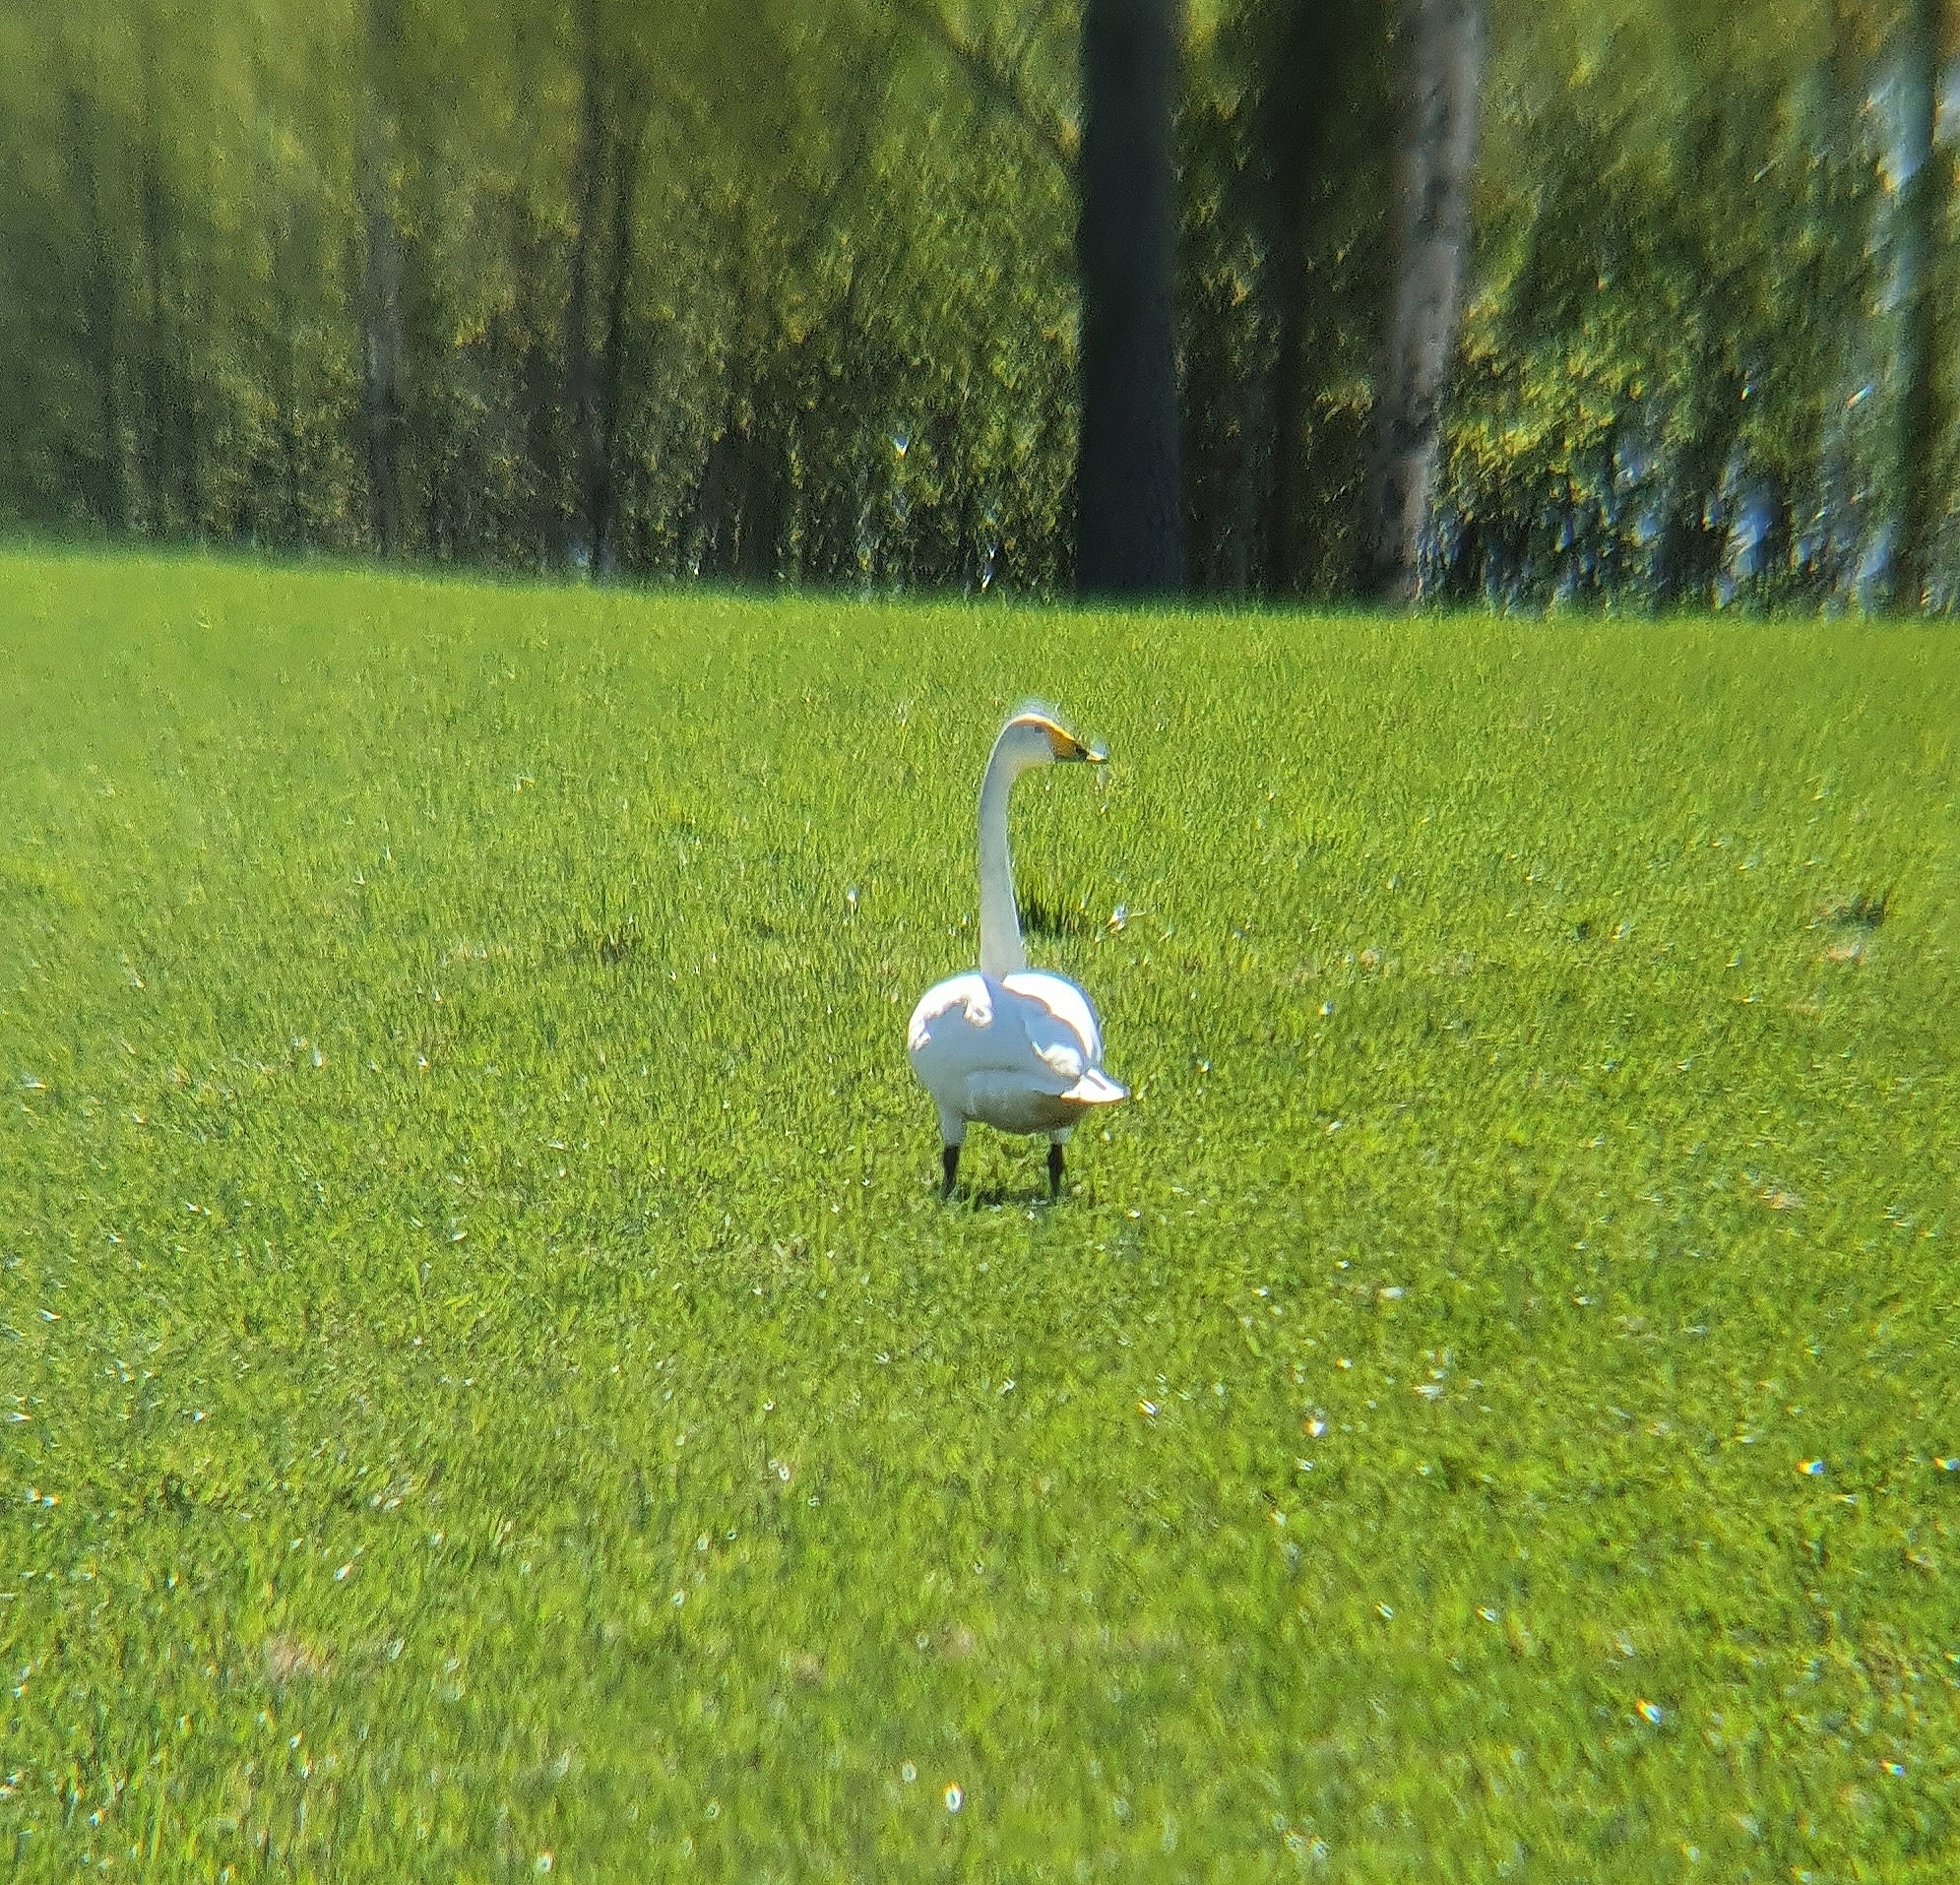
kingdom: Animalia
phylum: Chordata
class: Aves
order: Anseriformes
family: Anatidae
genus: Cygnus
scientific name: Cygnus cygnus
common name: Whooper swan
